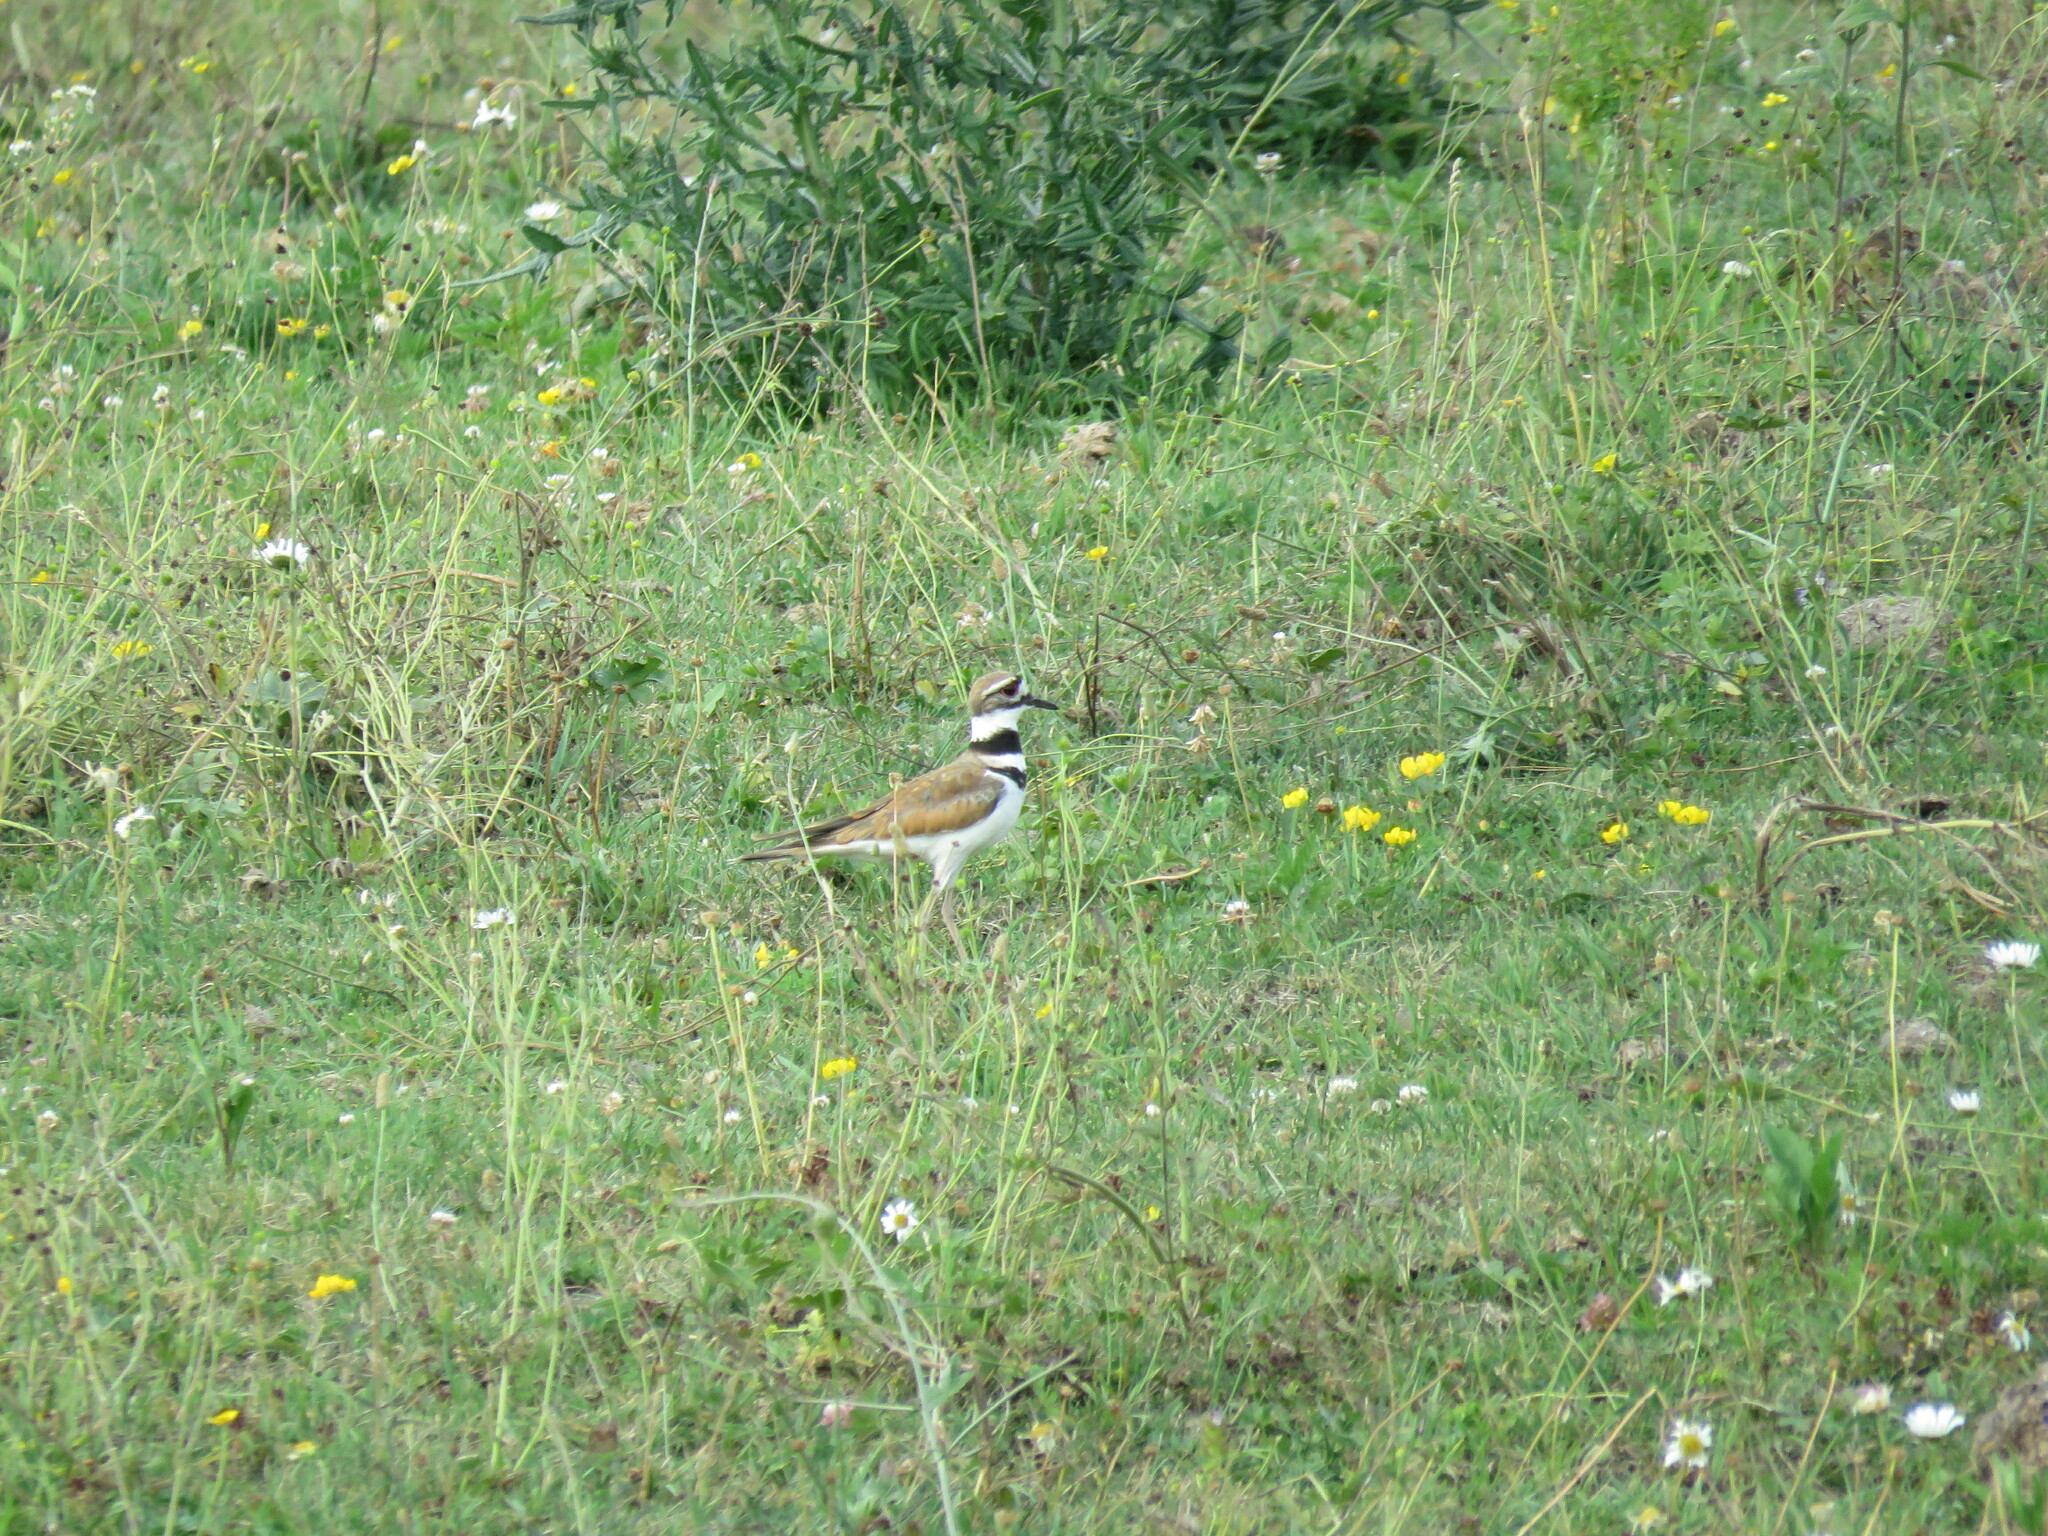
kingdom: Animalia
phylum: Chordata
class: Aves
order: Charadriiformes
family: Charadriidae
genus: Charadrius
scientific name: Charadrius vociferus
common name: Killdeer
